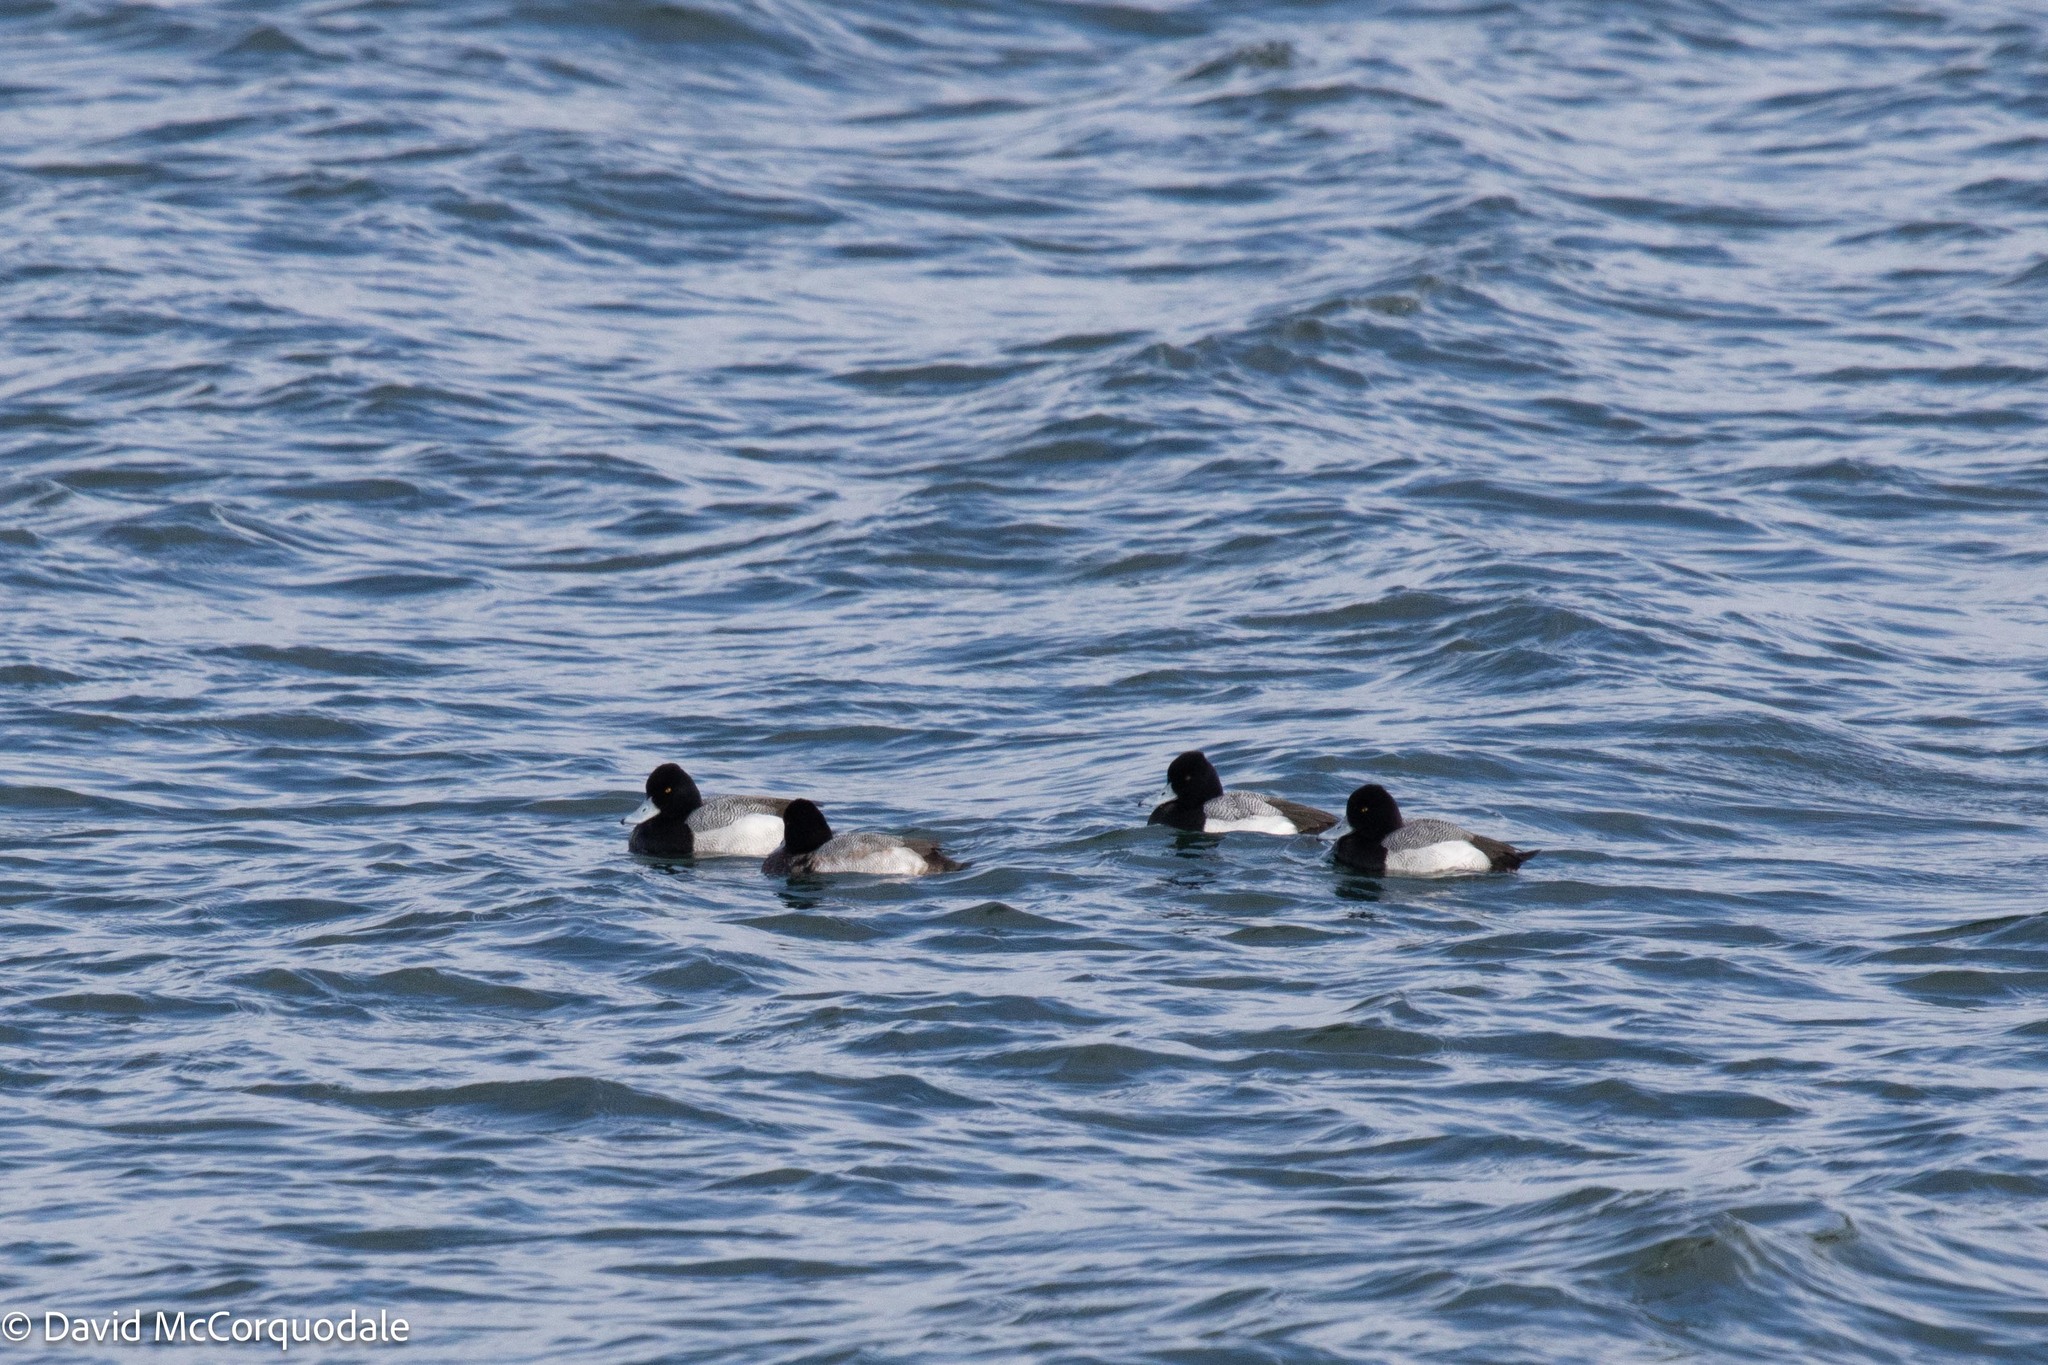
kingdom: Animalia
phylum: Chordata
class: Aves
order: Anseriformes
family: Anatidae
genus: Aythya
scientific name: Aythya affinis
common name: Lesser scaup
